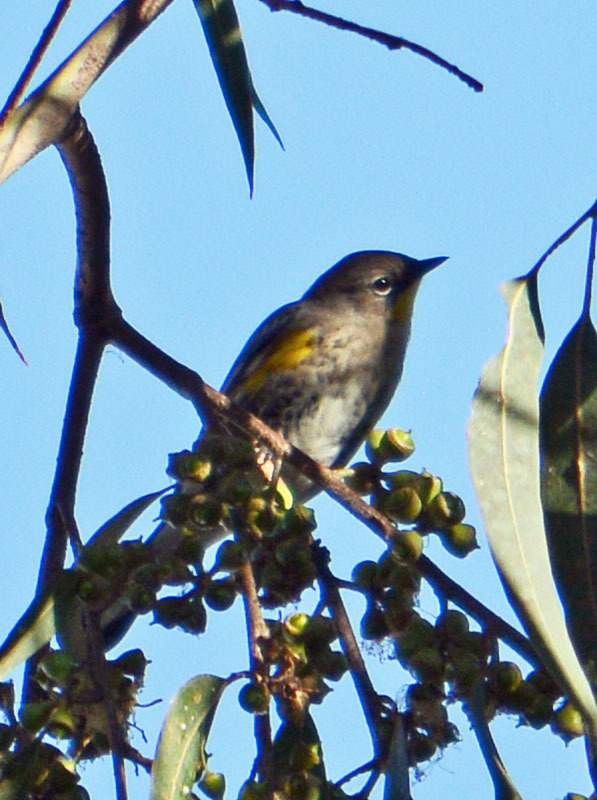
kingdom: Animalia
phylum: Chordata
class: Aves
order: Passeriformes
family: Parulidae
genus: Setophaga
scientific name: Setophaga auduboni
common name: Audubon's warbler
